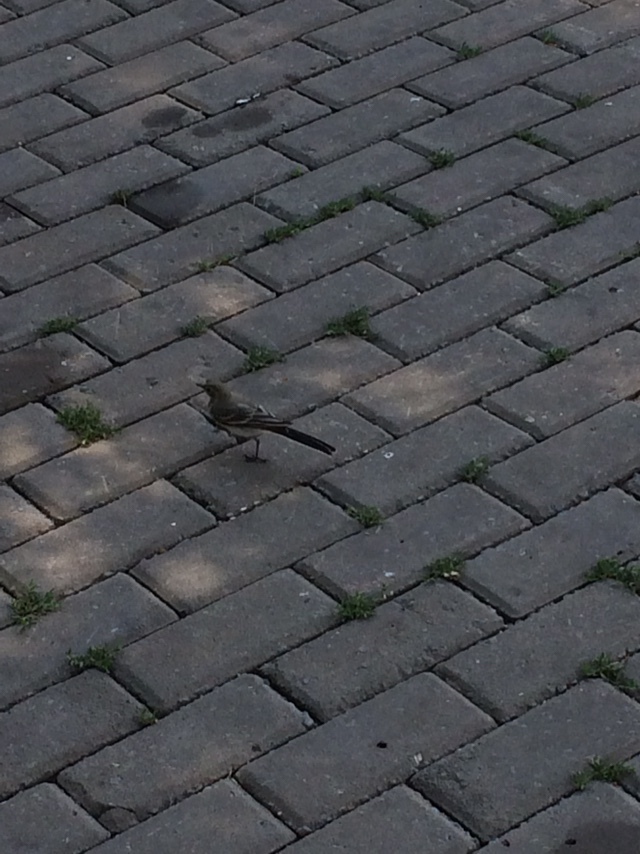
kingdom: Animalia
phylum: Chordata
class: Aves
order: Passeriformes
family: Motacillidae
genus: Motacilla
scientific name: Motacilla alba
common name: White wagtail
